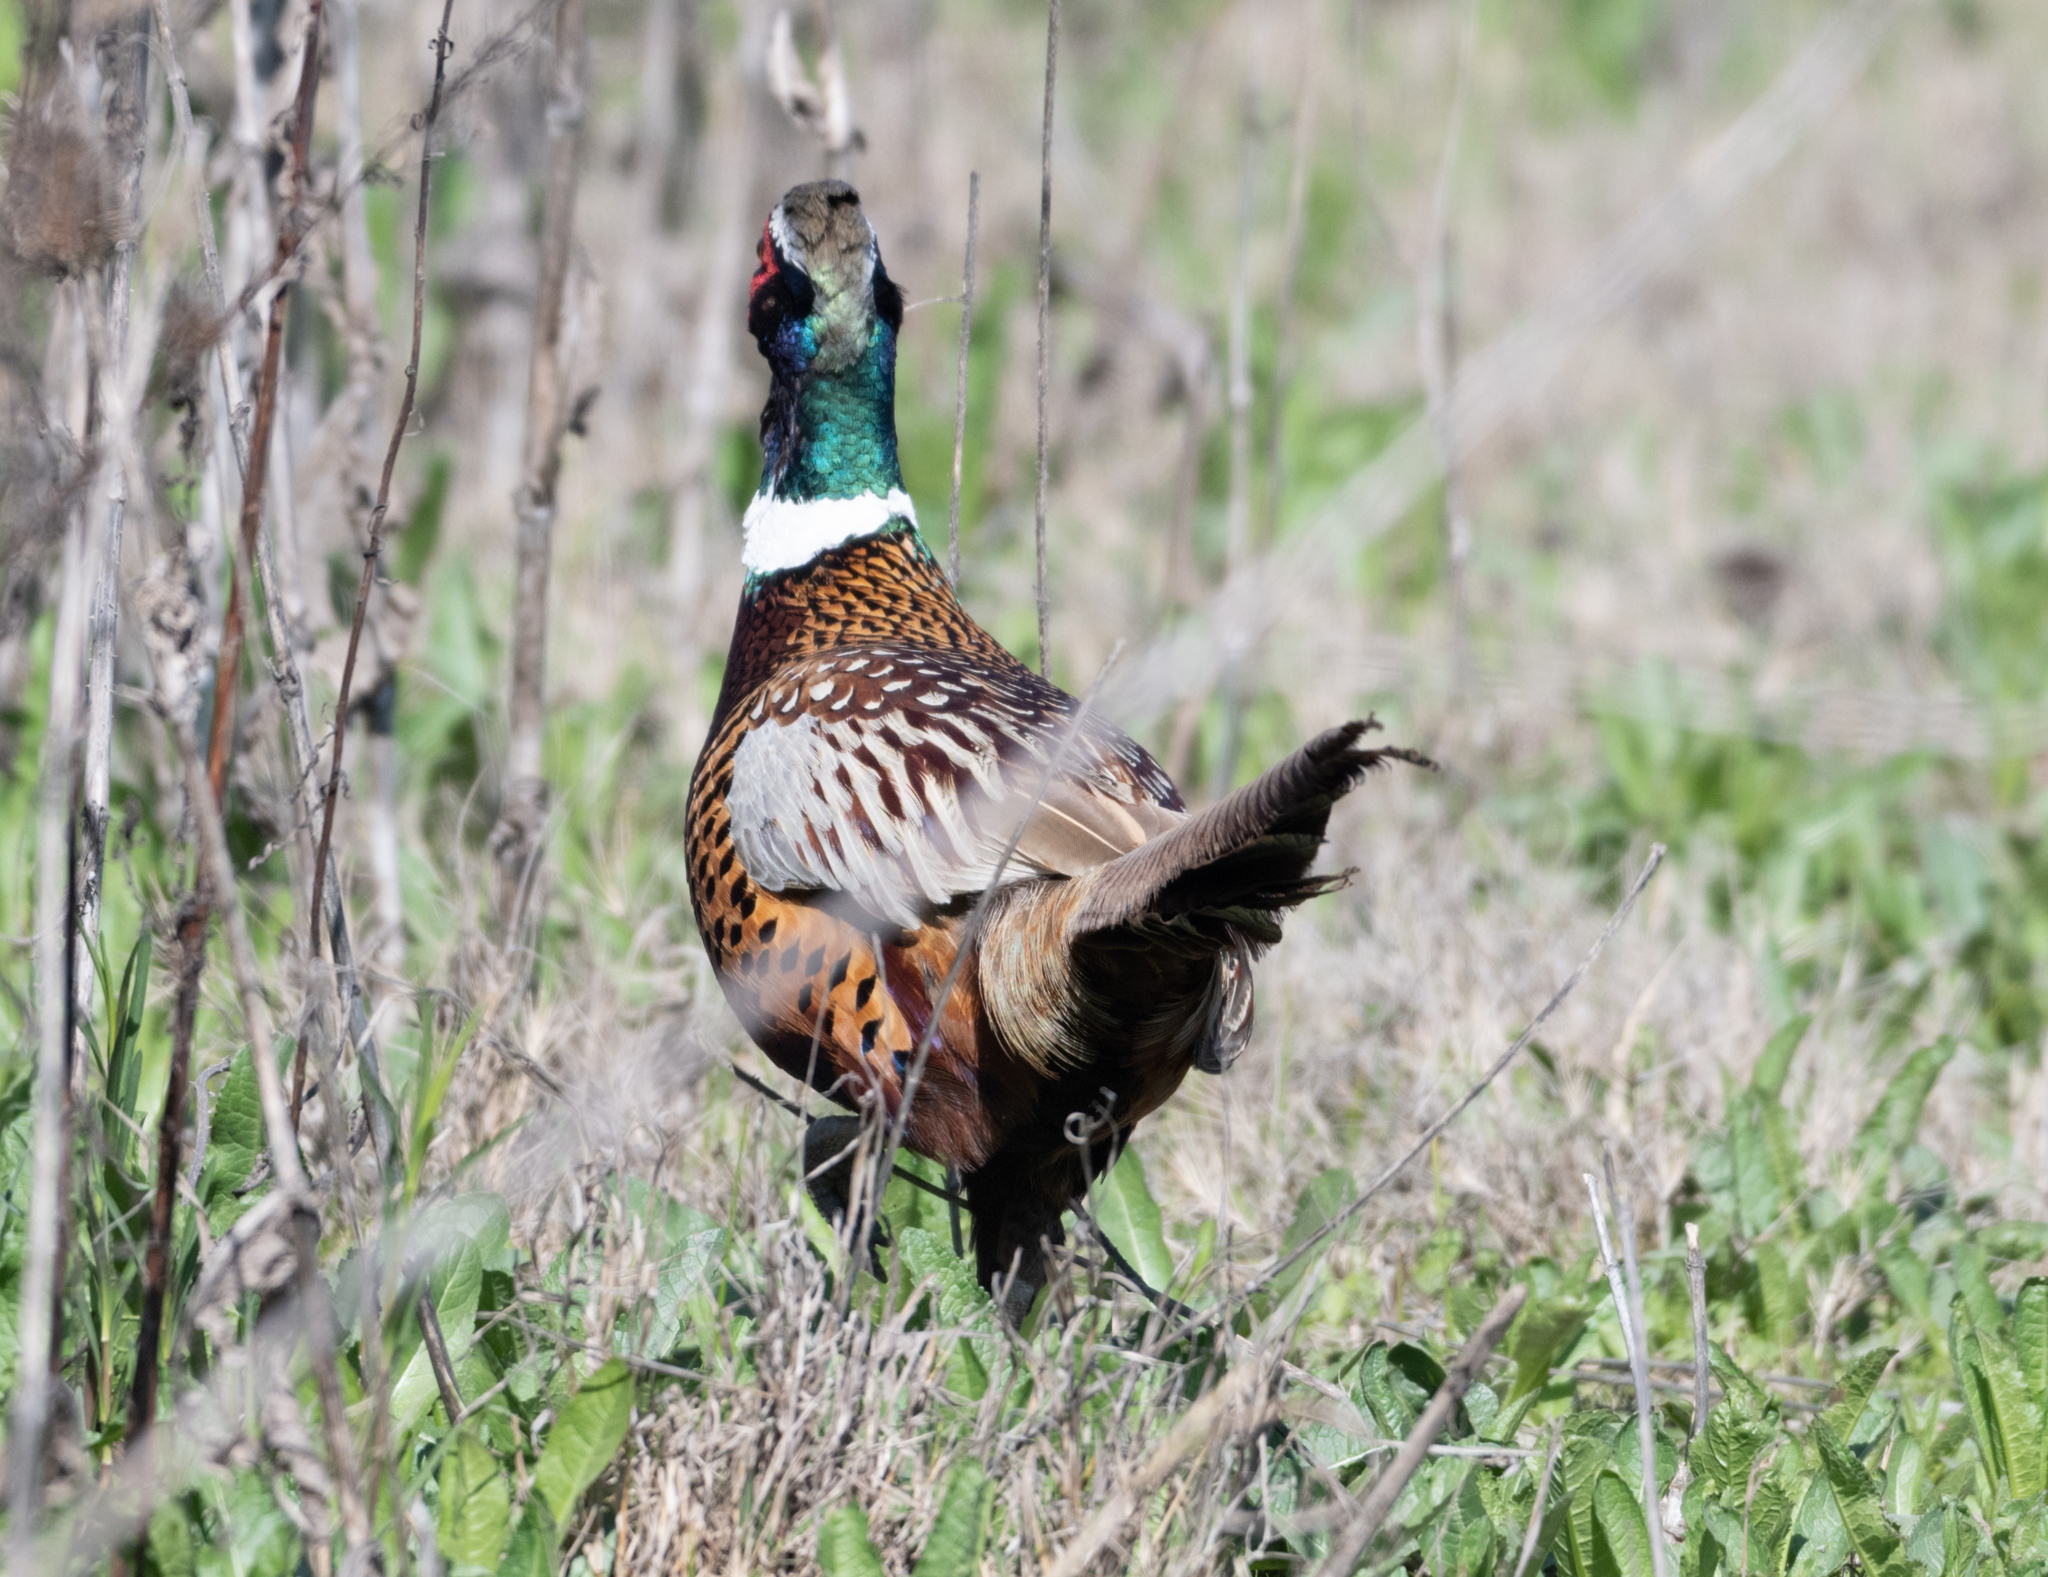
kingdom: Animalia
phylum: Chordata
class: Aves
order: Galliformes
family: Phasianidae
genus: Phasianus
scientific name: Phasianus colchicus
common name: Common pheasant
